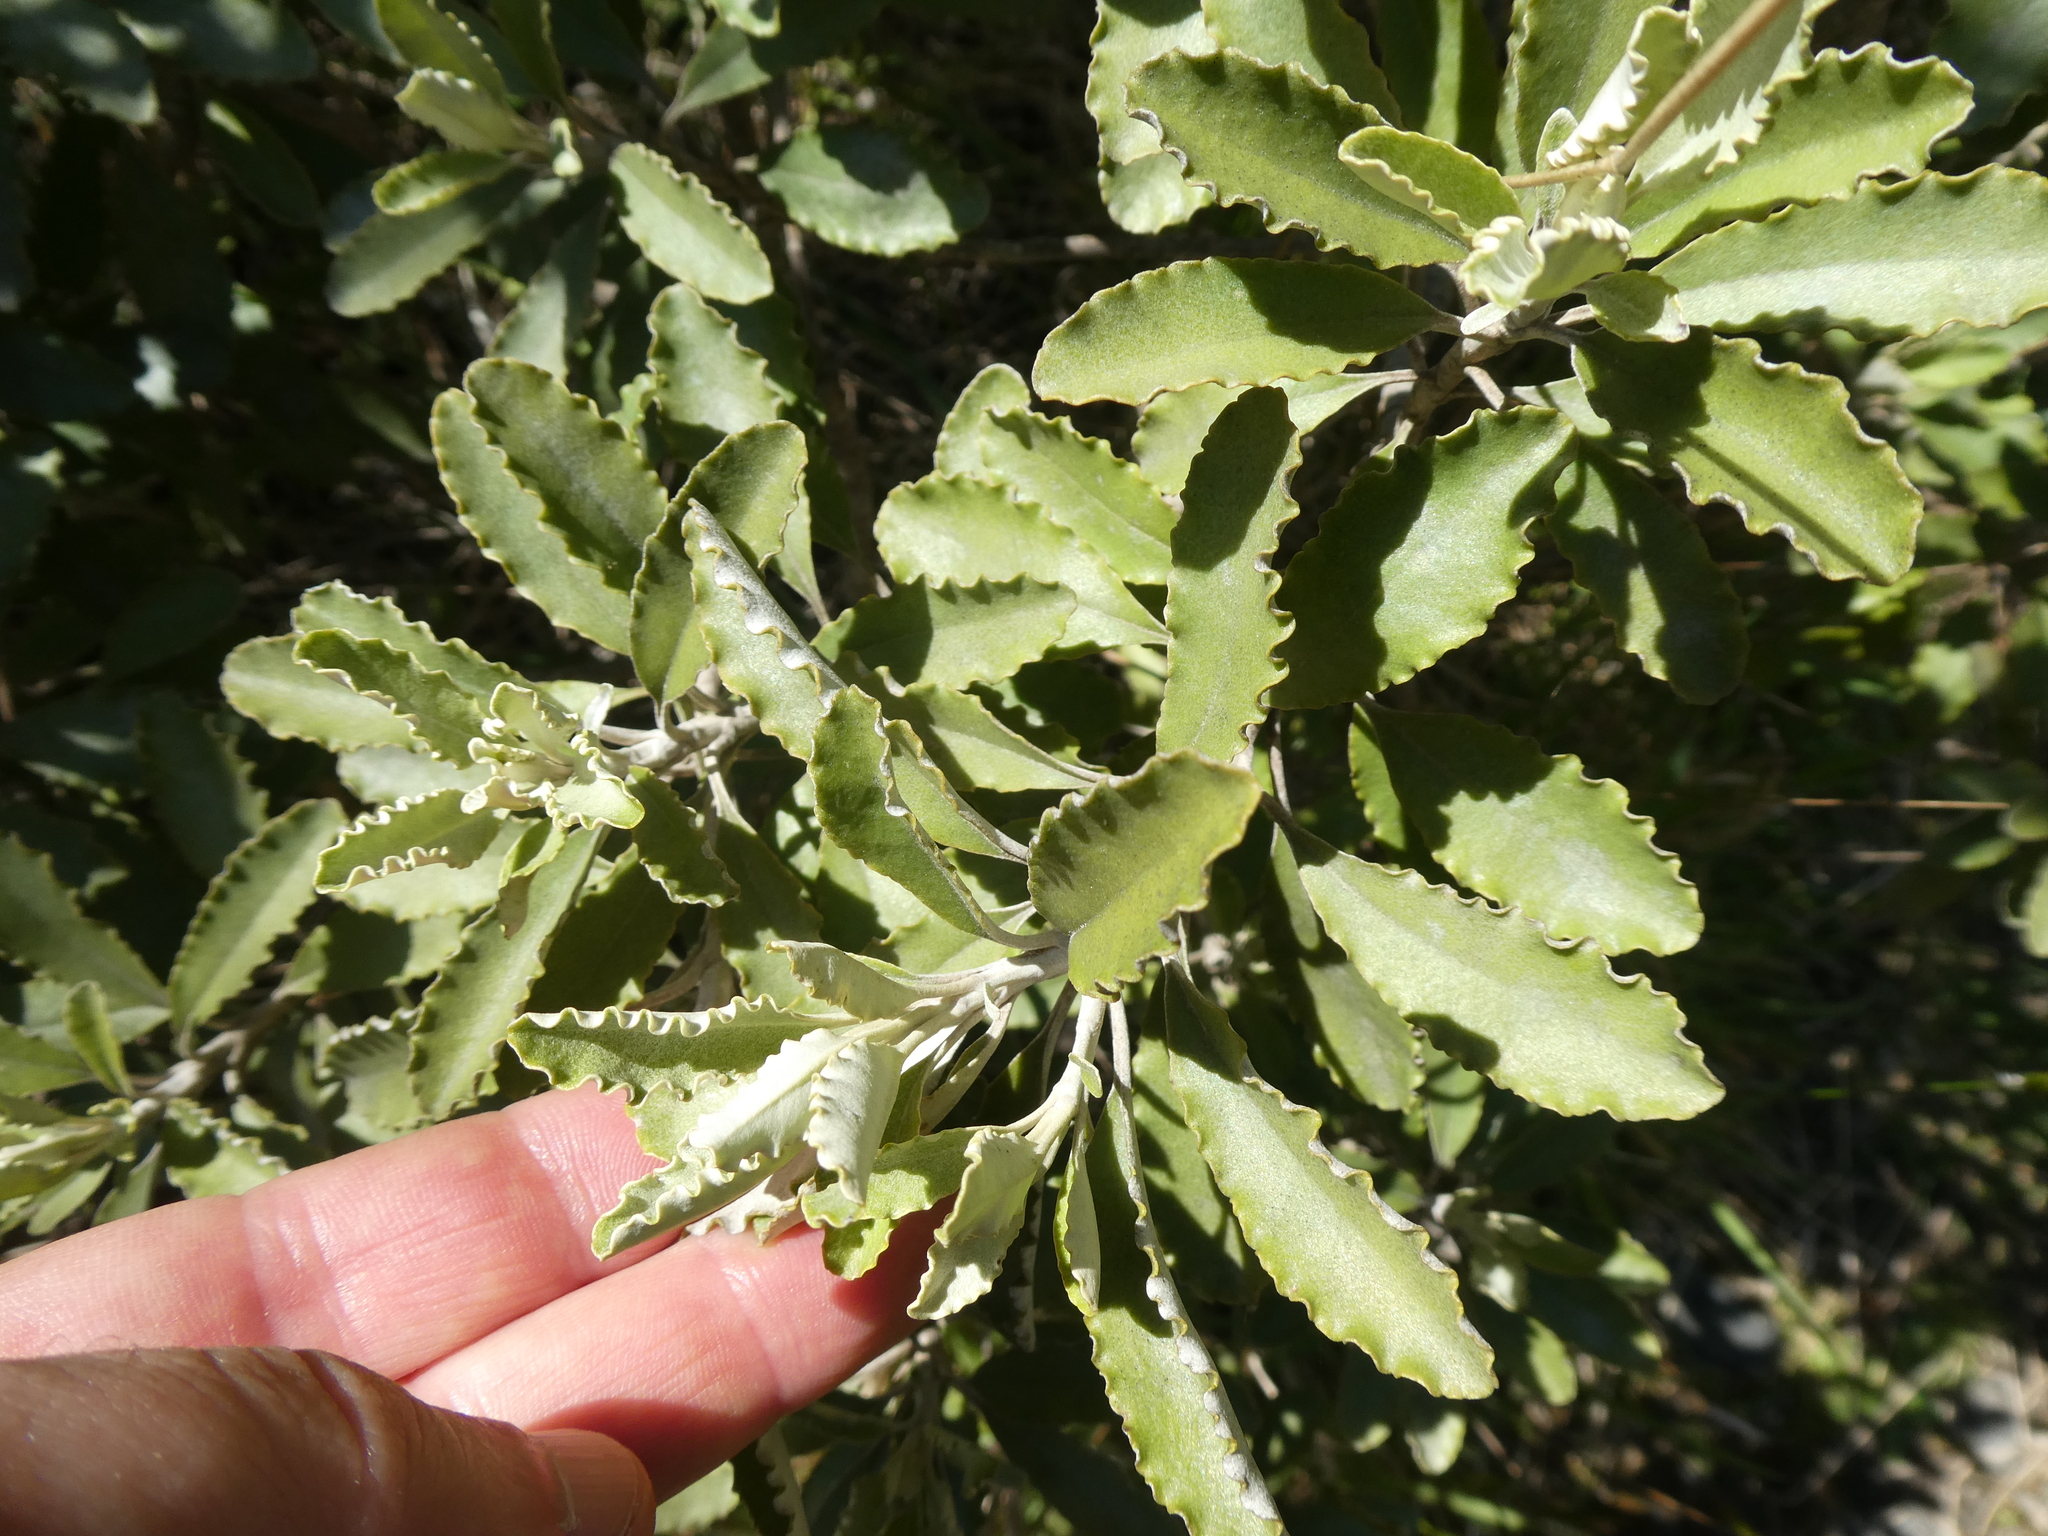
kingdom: Plantae
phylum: Tracheophyta
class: Magnoliopsida
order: Asterales
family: Asteraceae
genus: Brachyglottis
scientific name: Brachyglottis monroi
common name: Monro's ragwort
